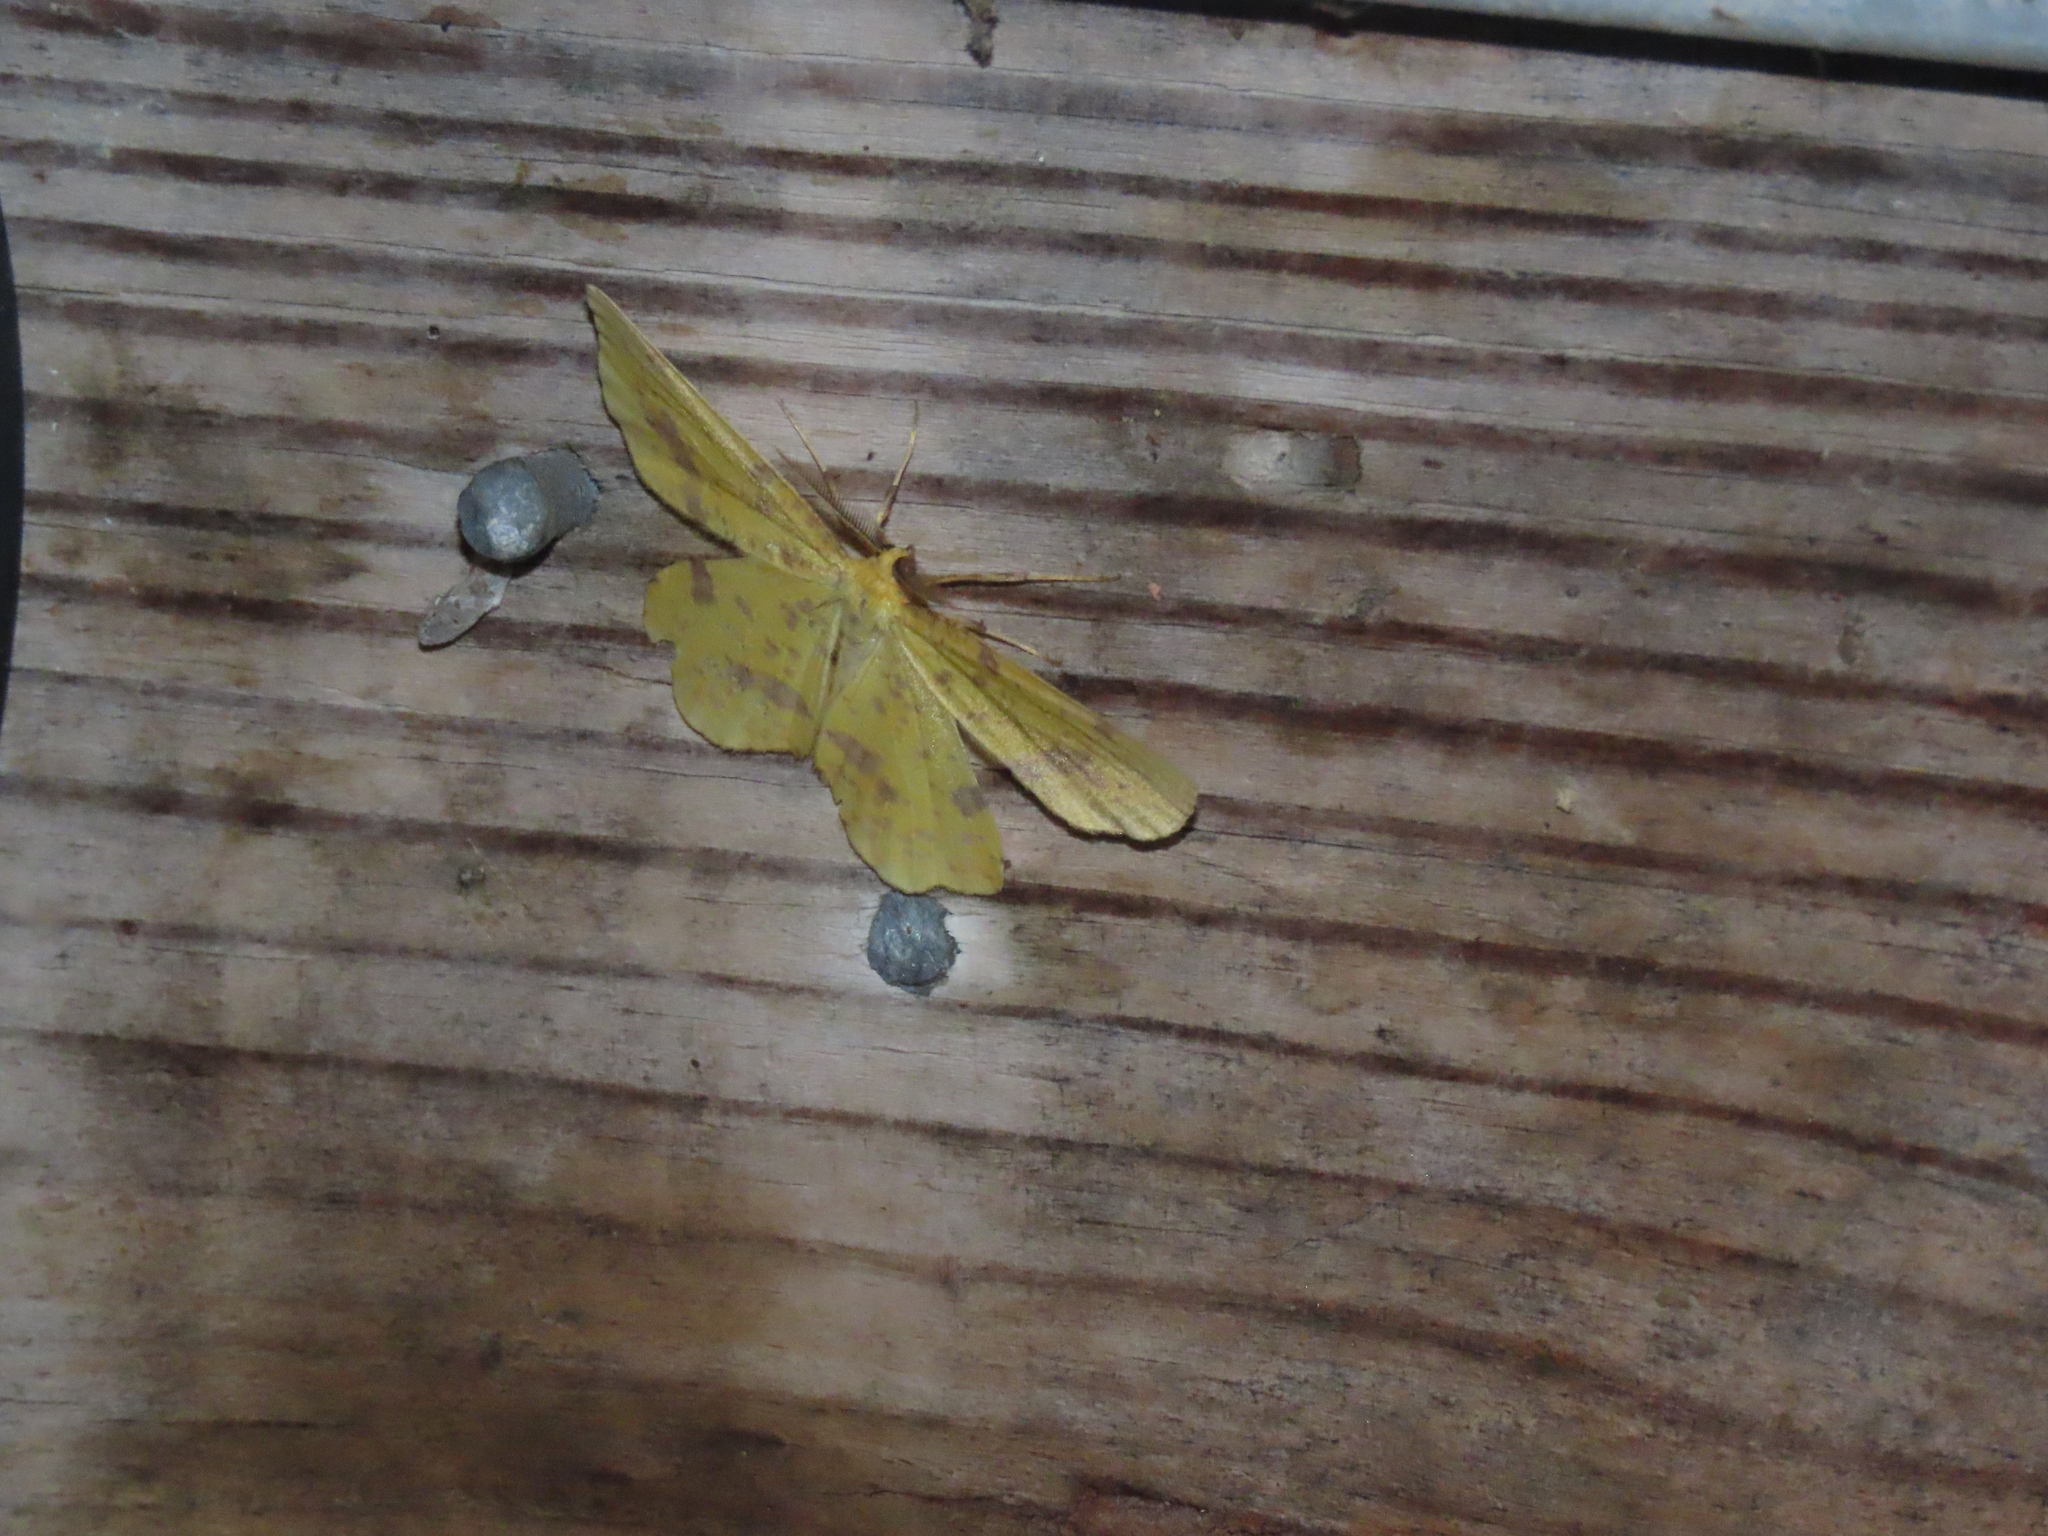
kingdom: Animalia
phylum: Arthropoda
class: Insecta
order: Lepidoptera
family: Geometridae
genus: Xanthotype
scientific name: Xanthotype
